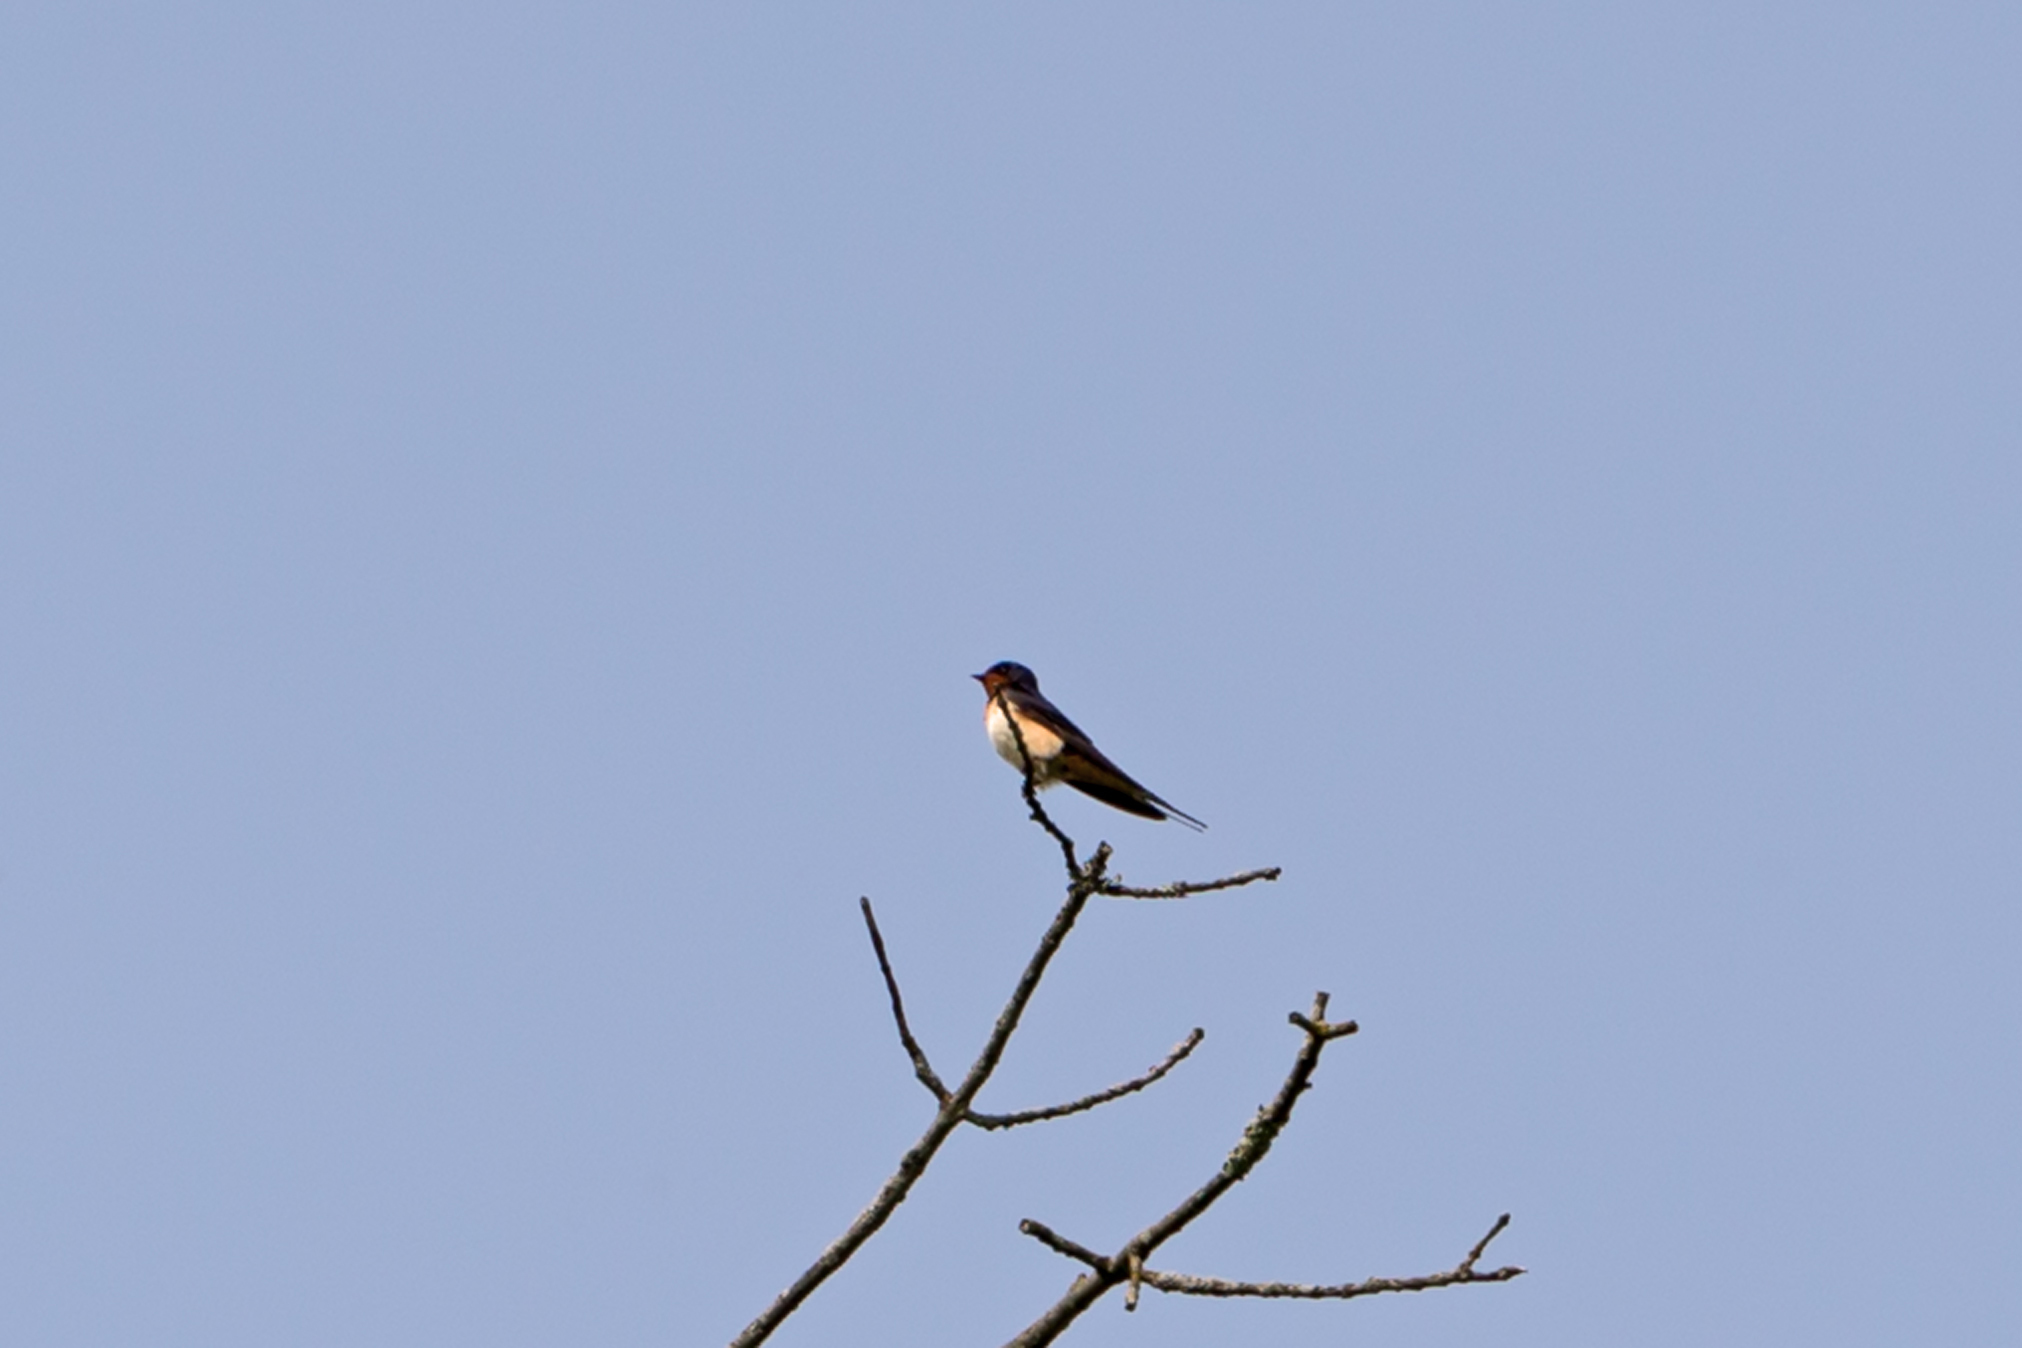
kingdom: Animalia
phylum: Chordata
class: Aves
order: Passeriformes
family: Hirundinidae
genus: Hirundo
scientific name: Hirundo rustica
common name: Barn swallow
